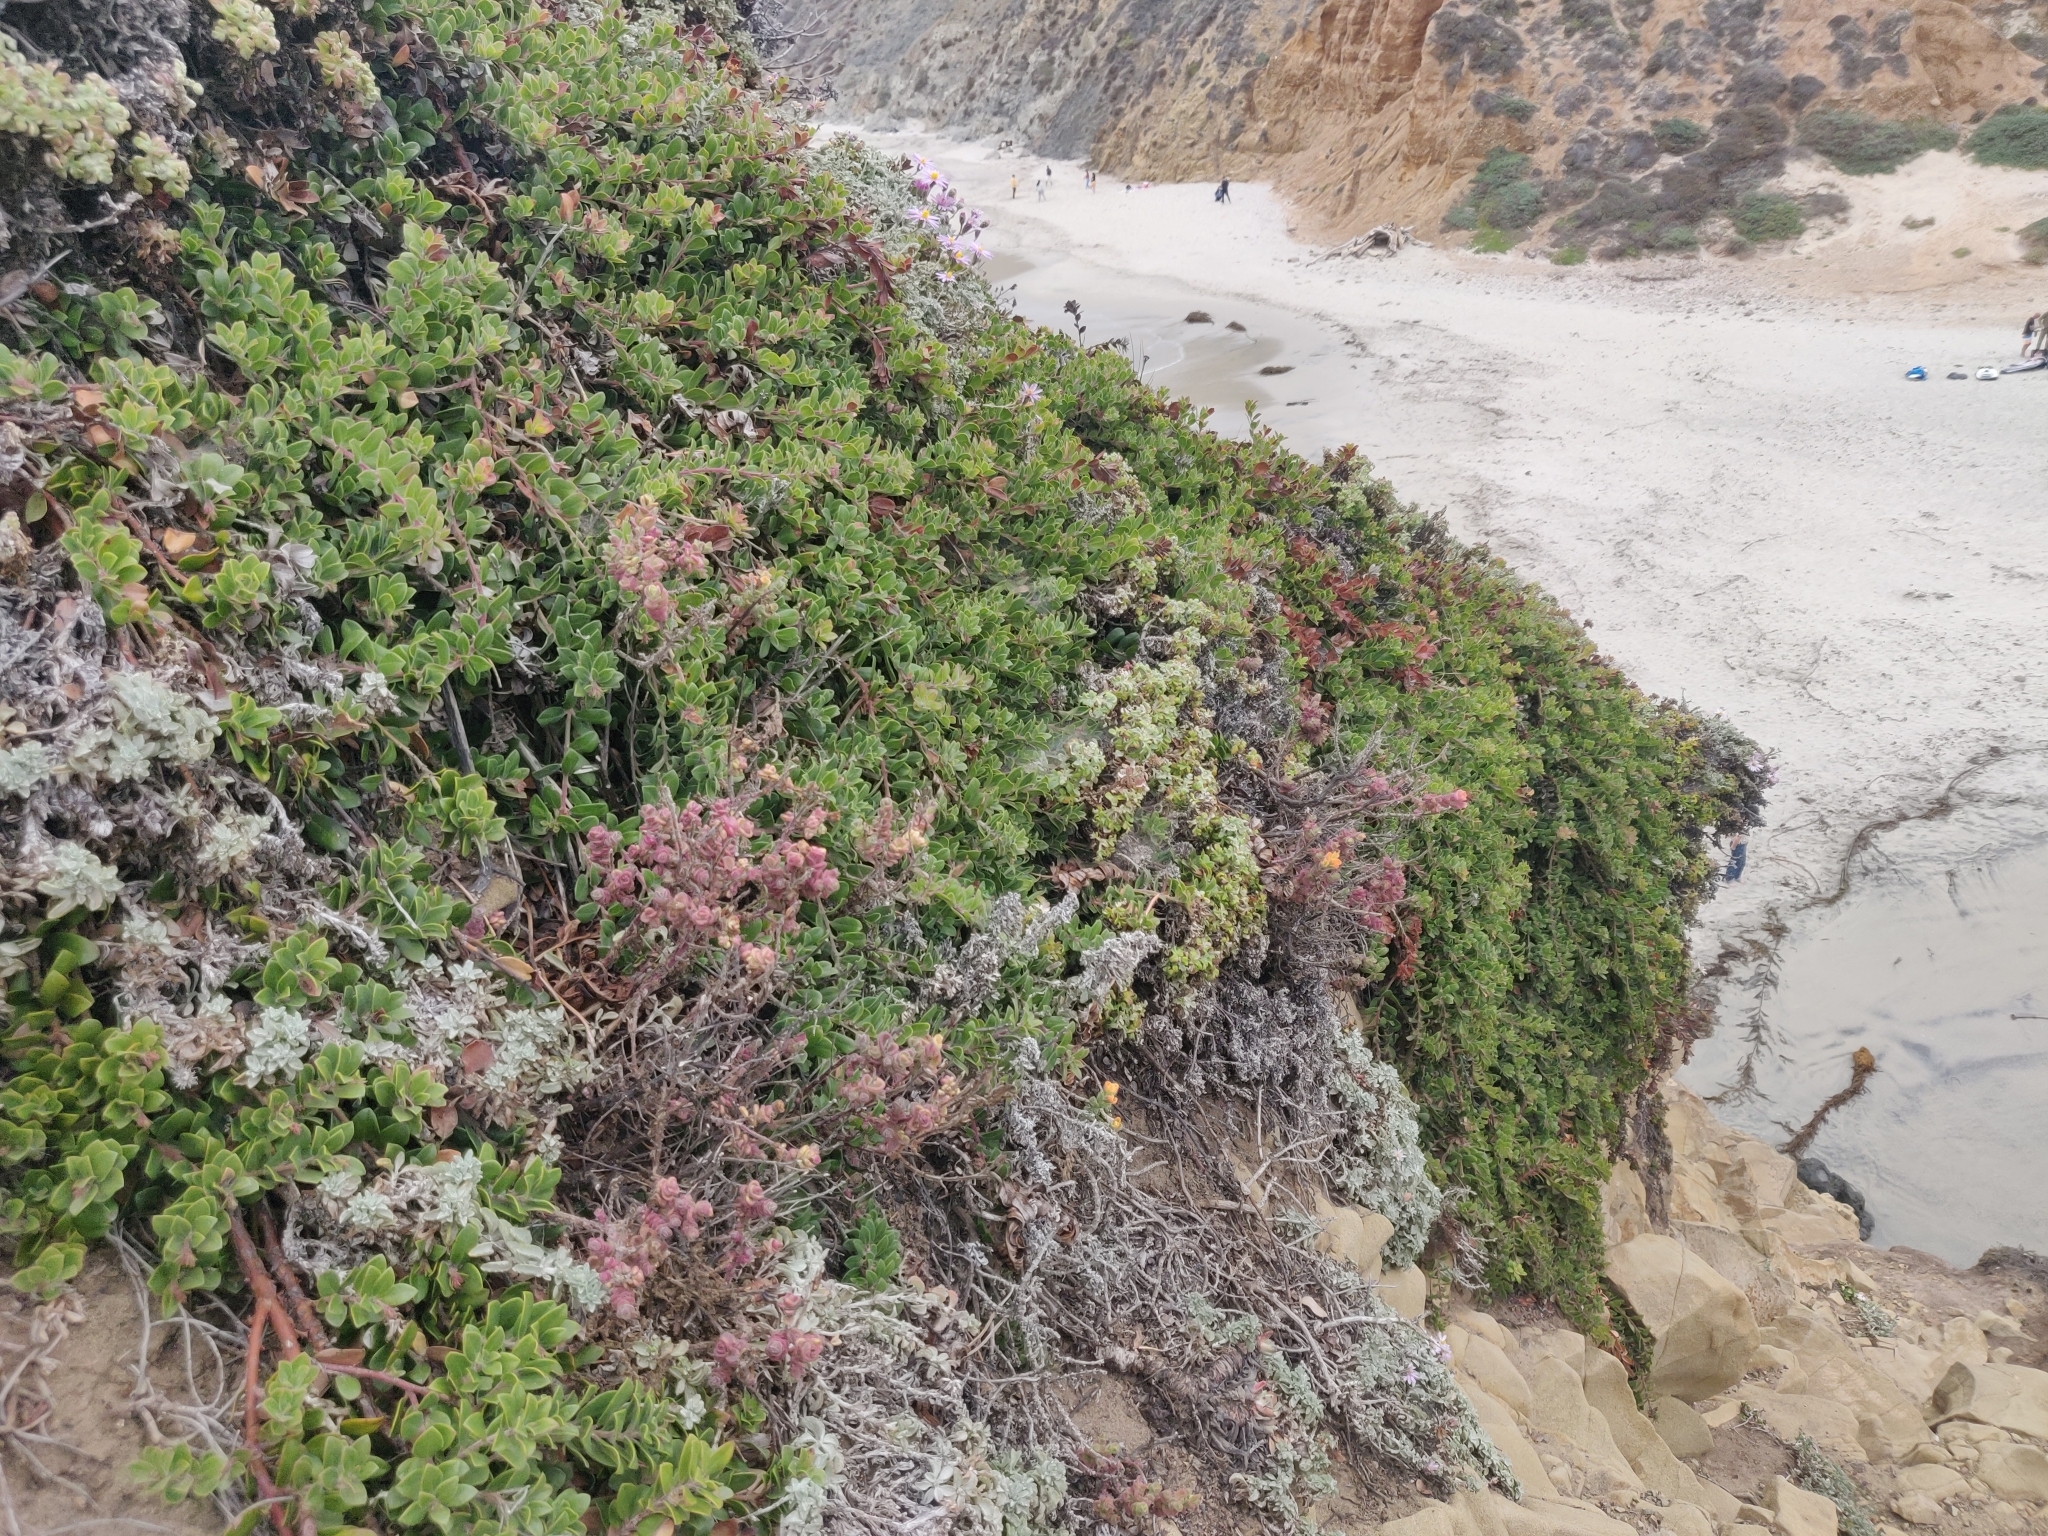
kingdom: Plantae
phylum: Tracheophyta
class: Magnoliopsida
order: Ericales
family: Ericaceae
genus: Arctostaphylos
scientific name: Arctostaphylos uva-ursi
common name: Bearberry
